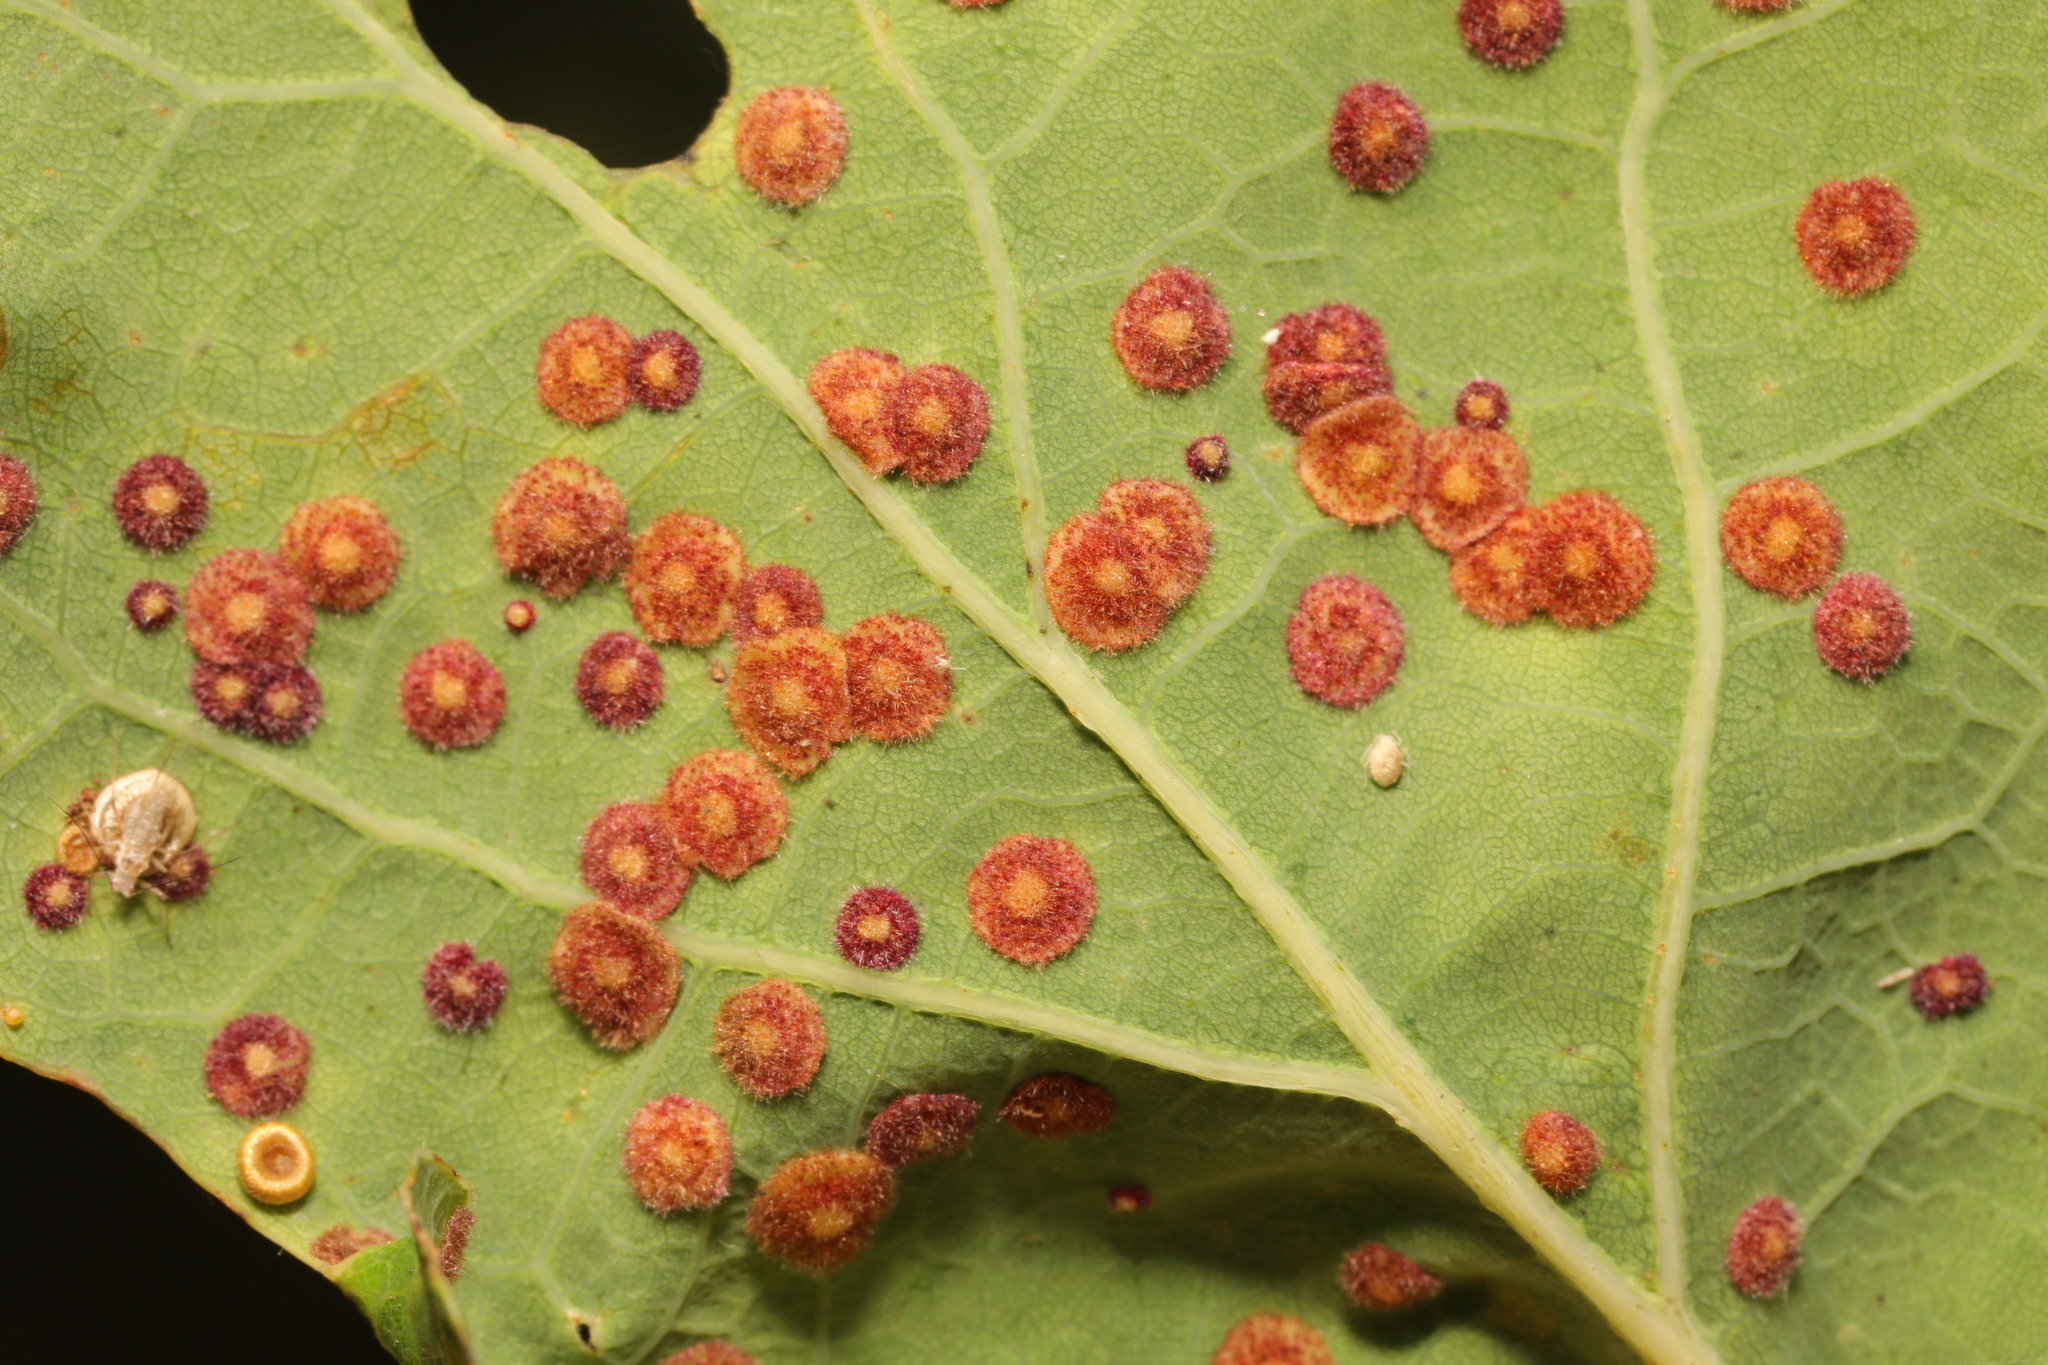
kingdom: Animalia
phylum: Arthropoda
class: Insecta
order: Hymenoptera
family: Cynipidae
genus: Neuroterus
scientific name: Neuroterus quercusbaccarum
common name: Common spangle gall
